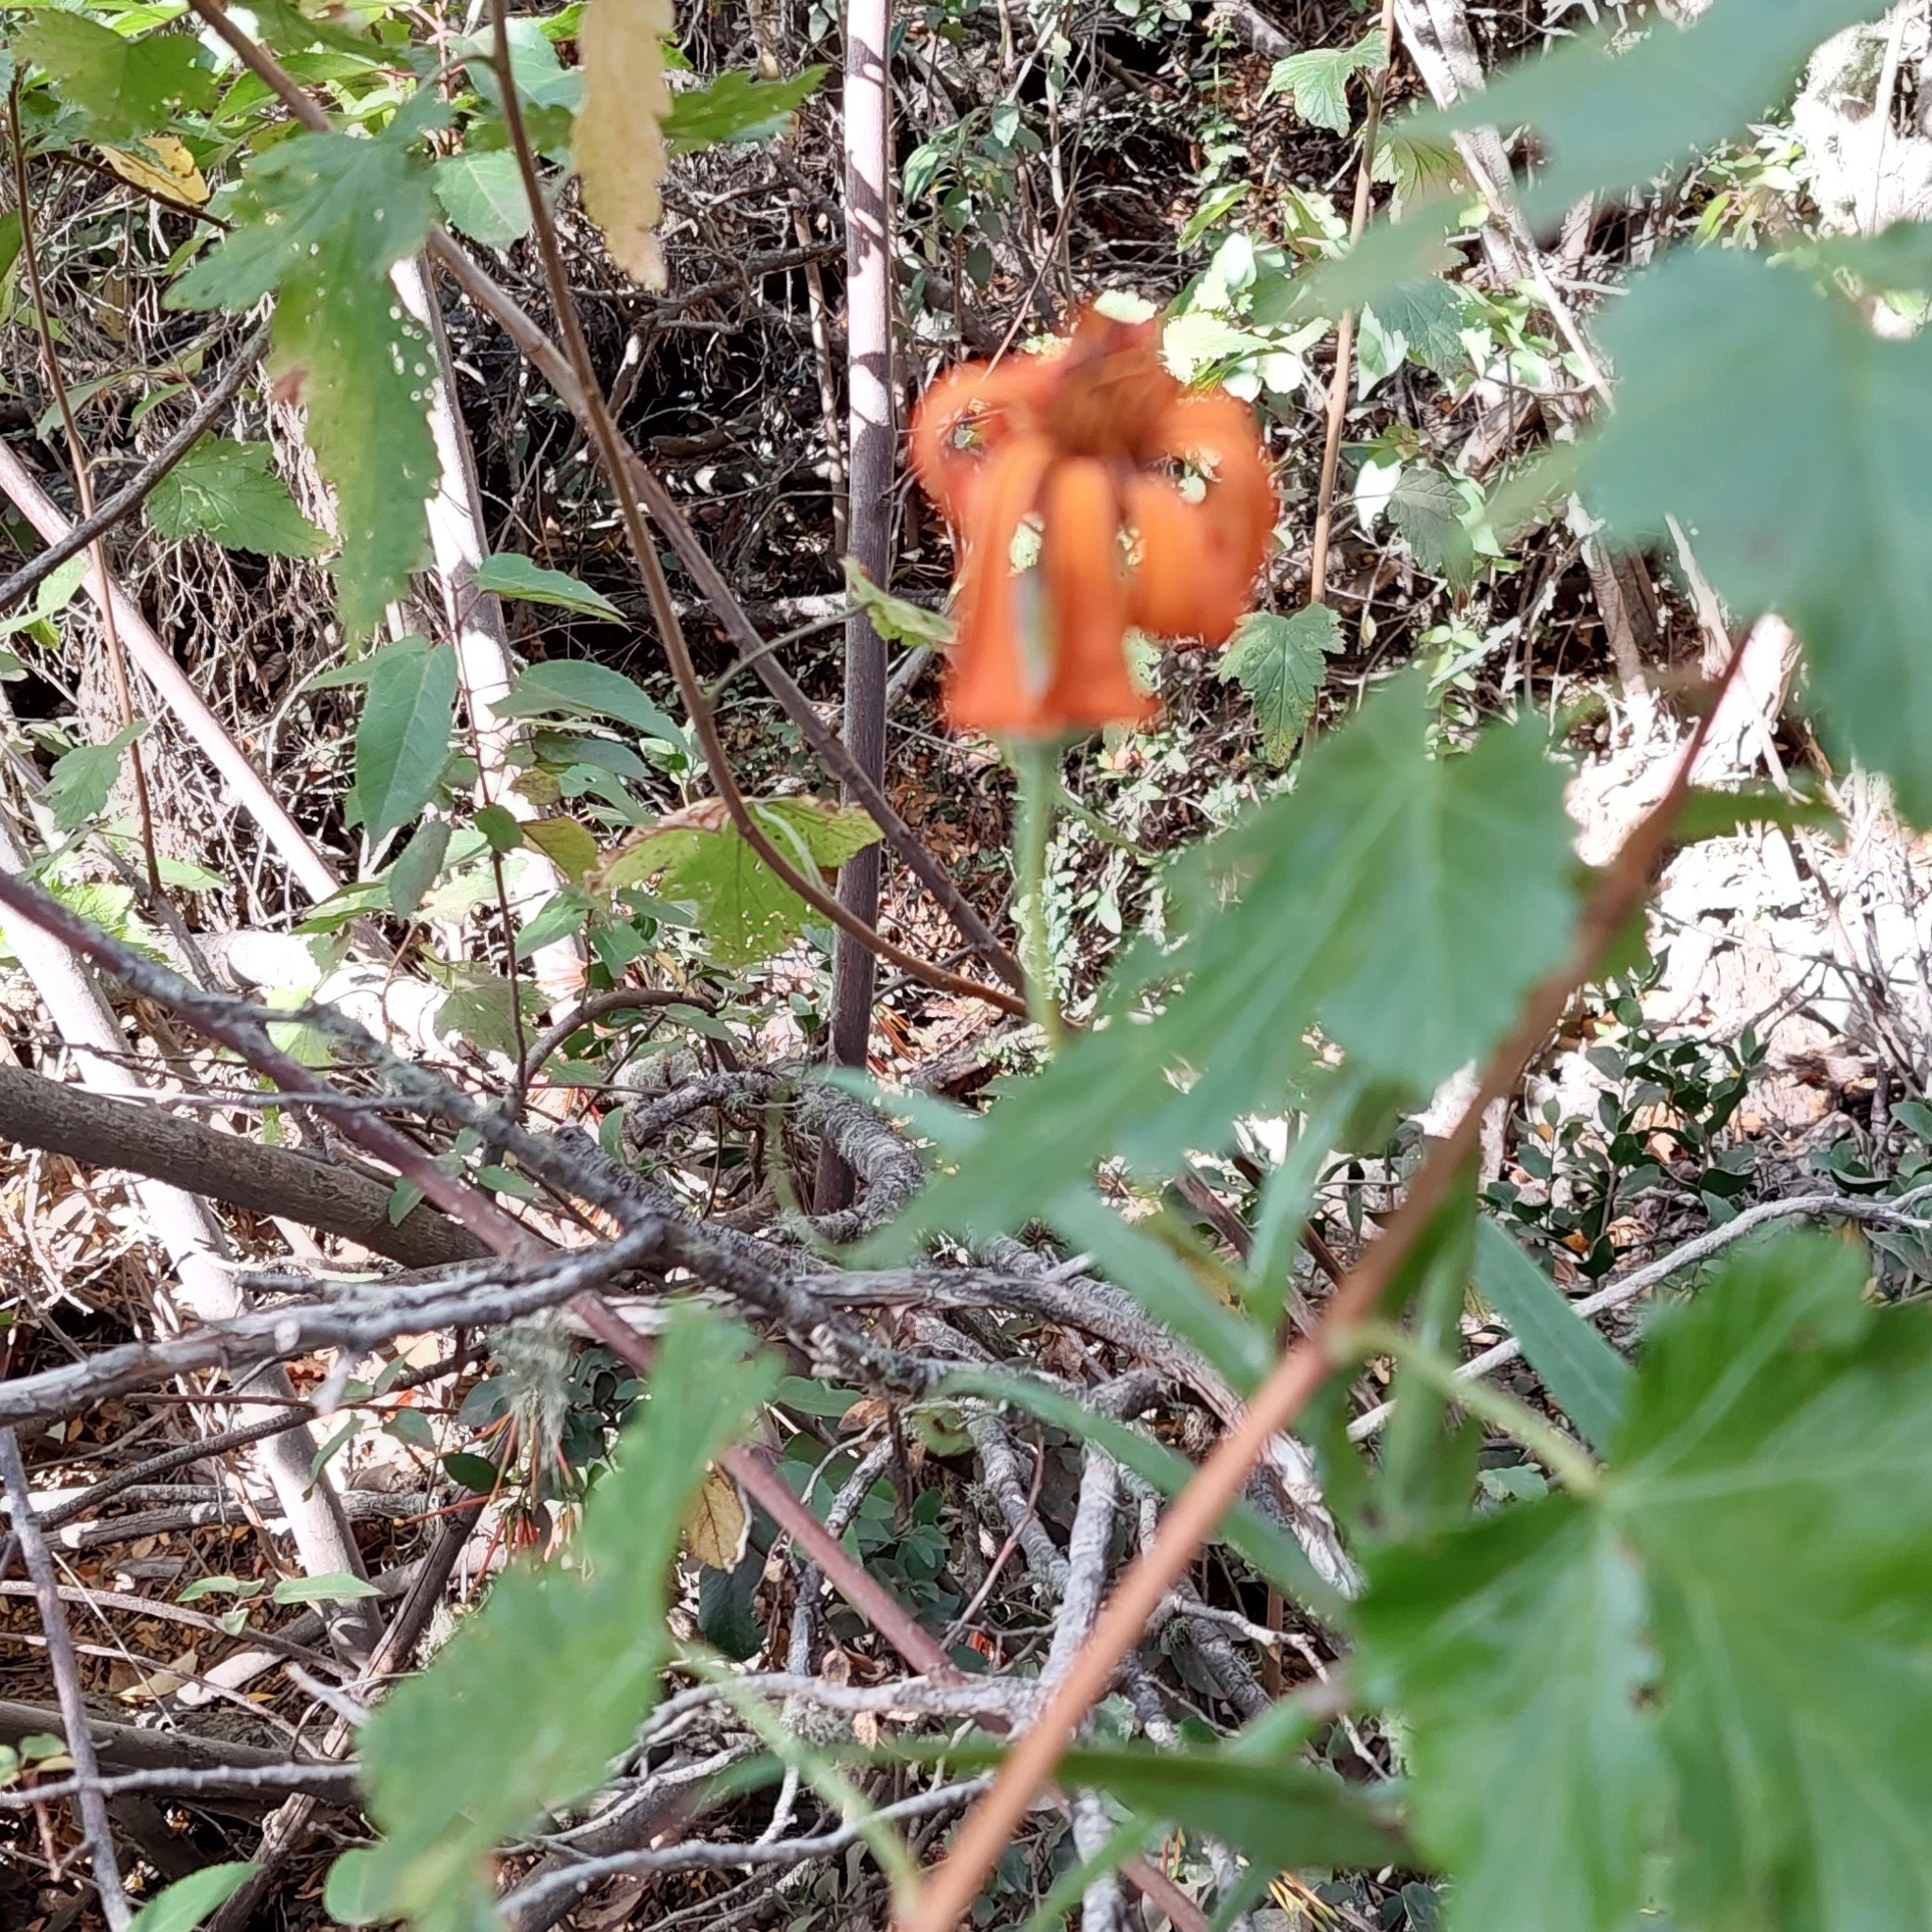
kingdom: Plantae
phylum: Tracheophyta
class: Magnoliopsida
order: Asterales
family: Asteraceae
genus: Mutisia
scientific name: Mutisia decurrens
